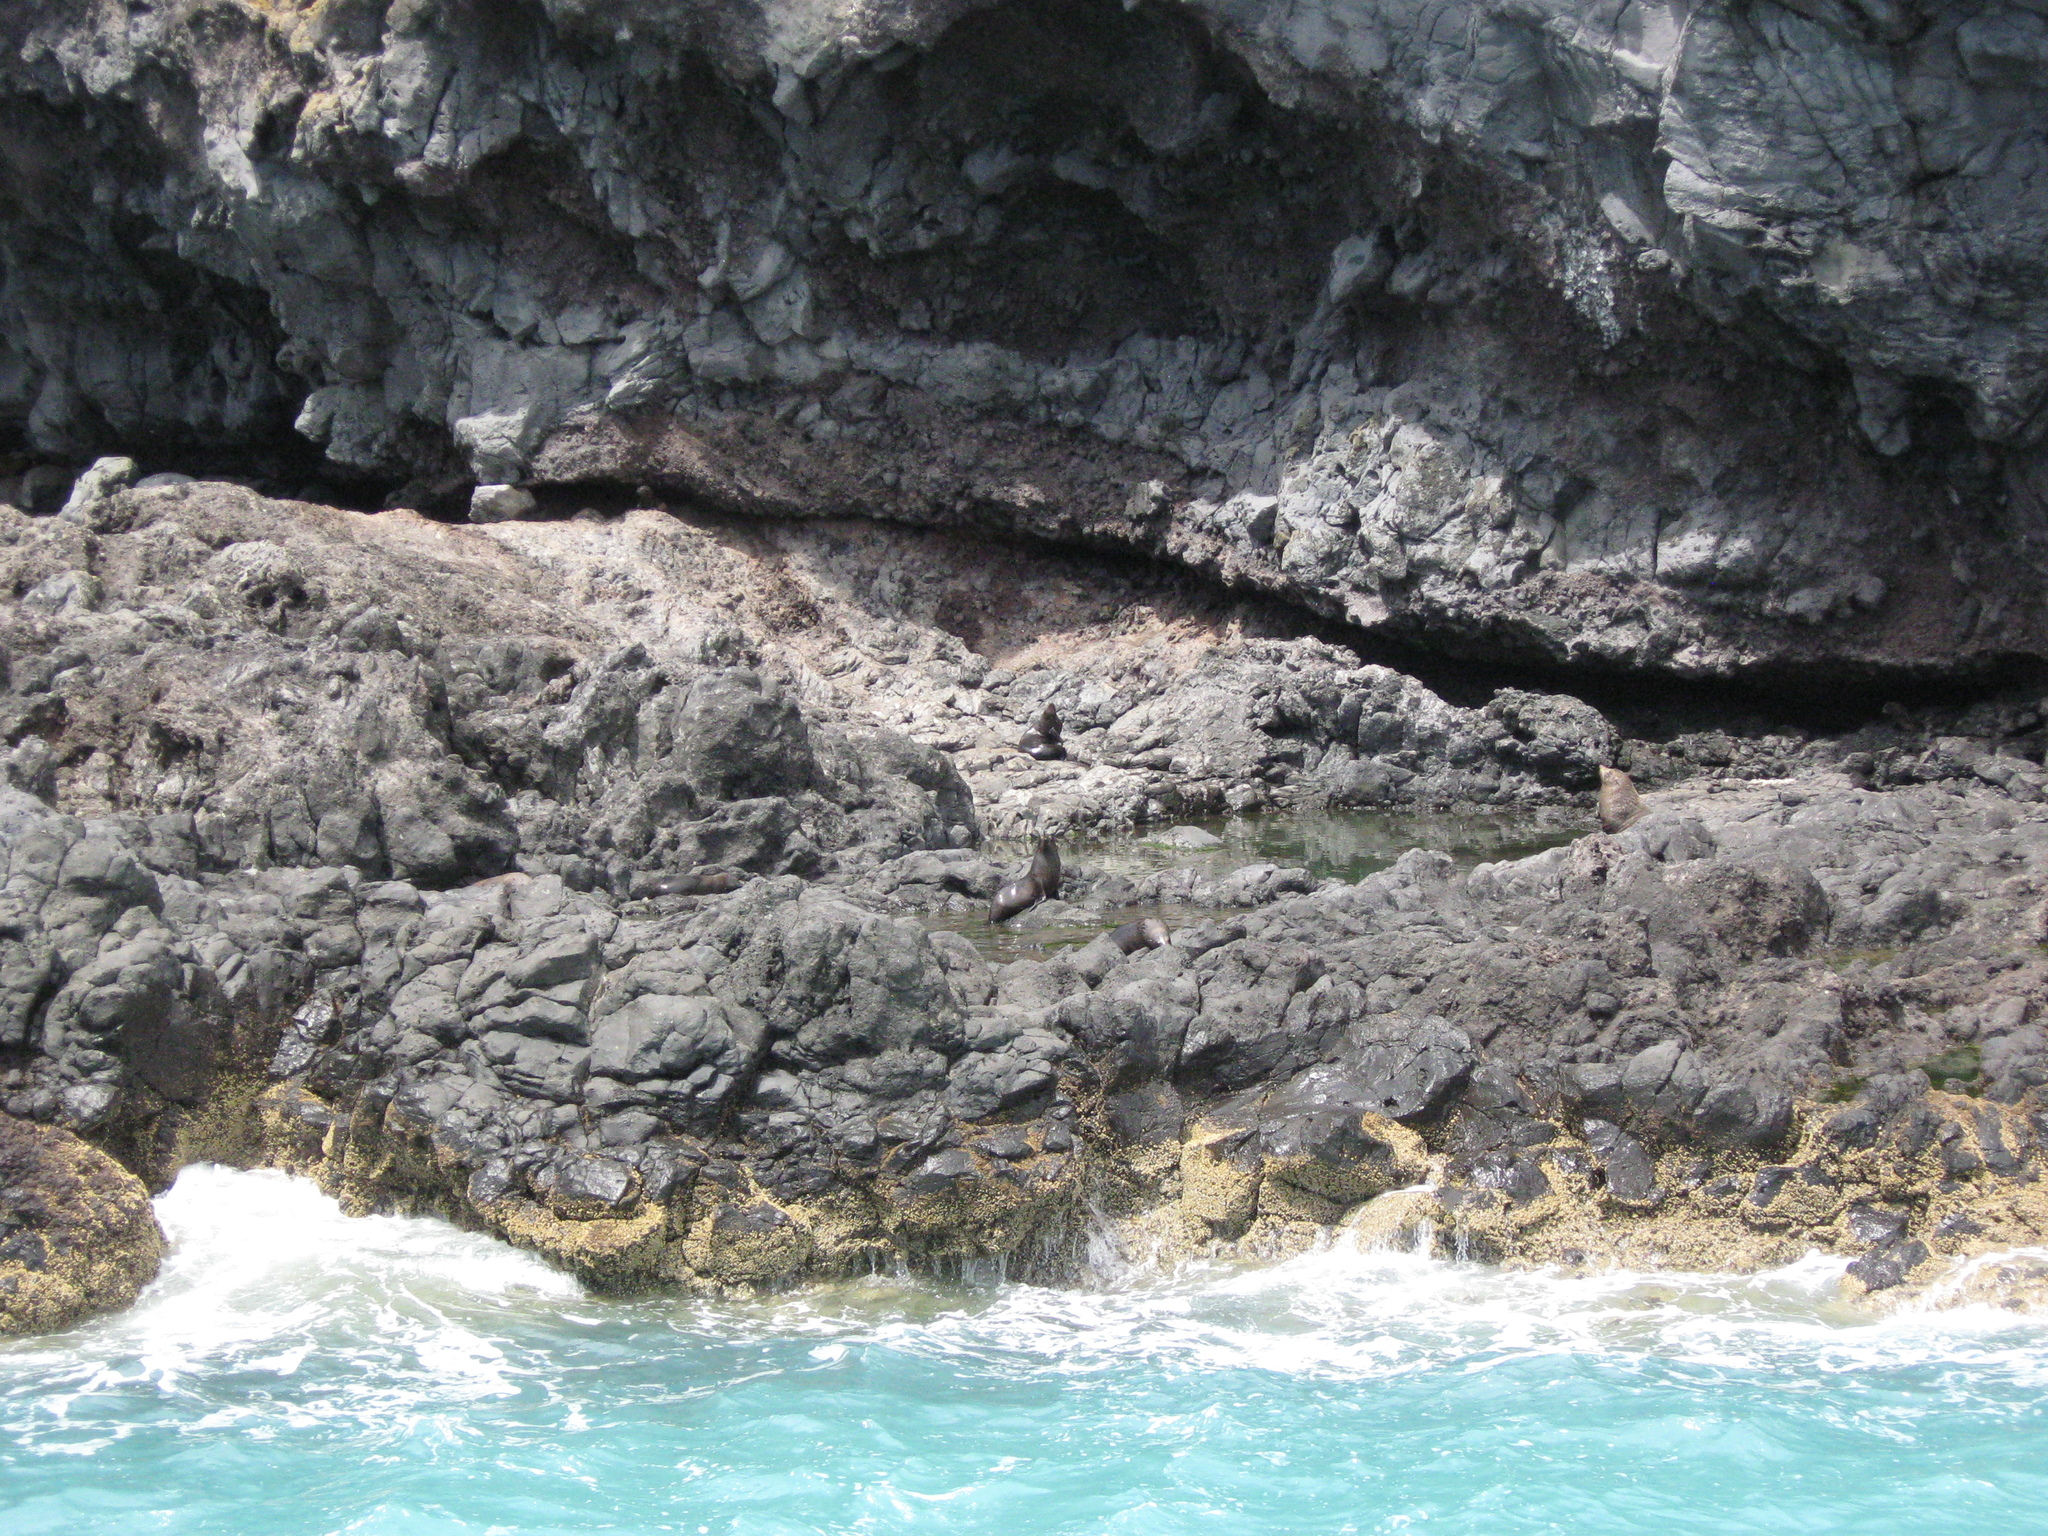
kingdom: Animalia
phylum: Chordata
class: Mammalia
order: Carnivora
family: Otariidae
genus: Arctocephalus
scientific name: Arctocephalus forsteri
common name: New zealand fur seal
